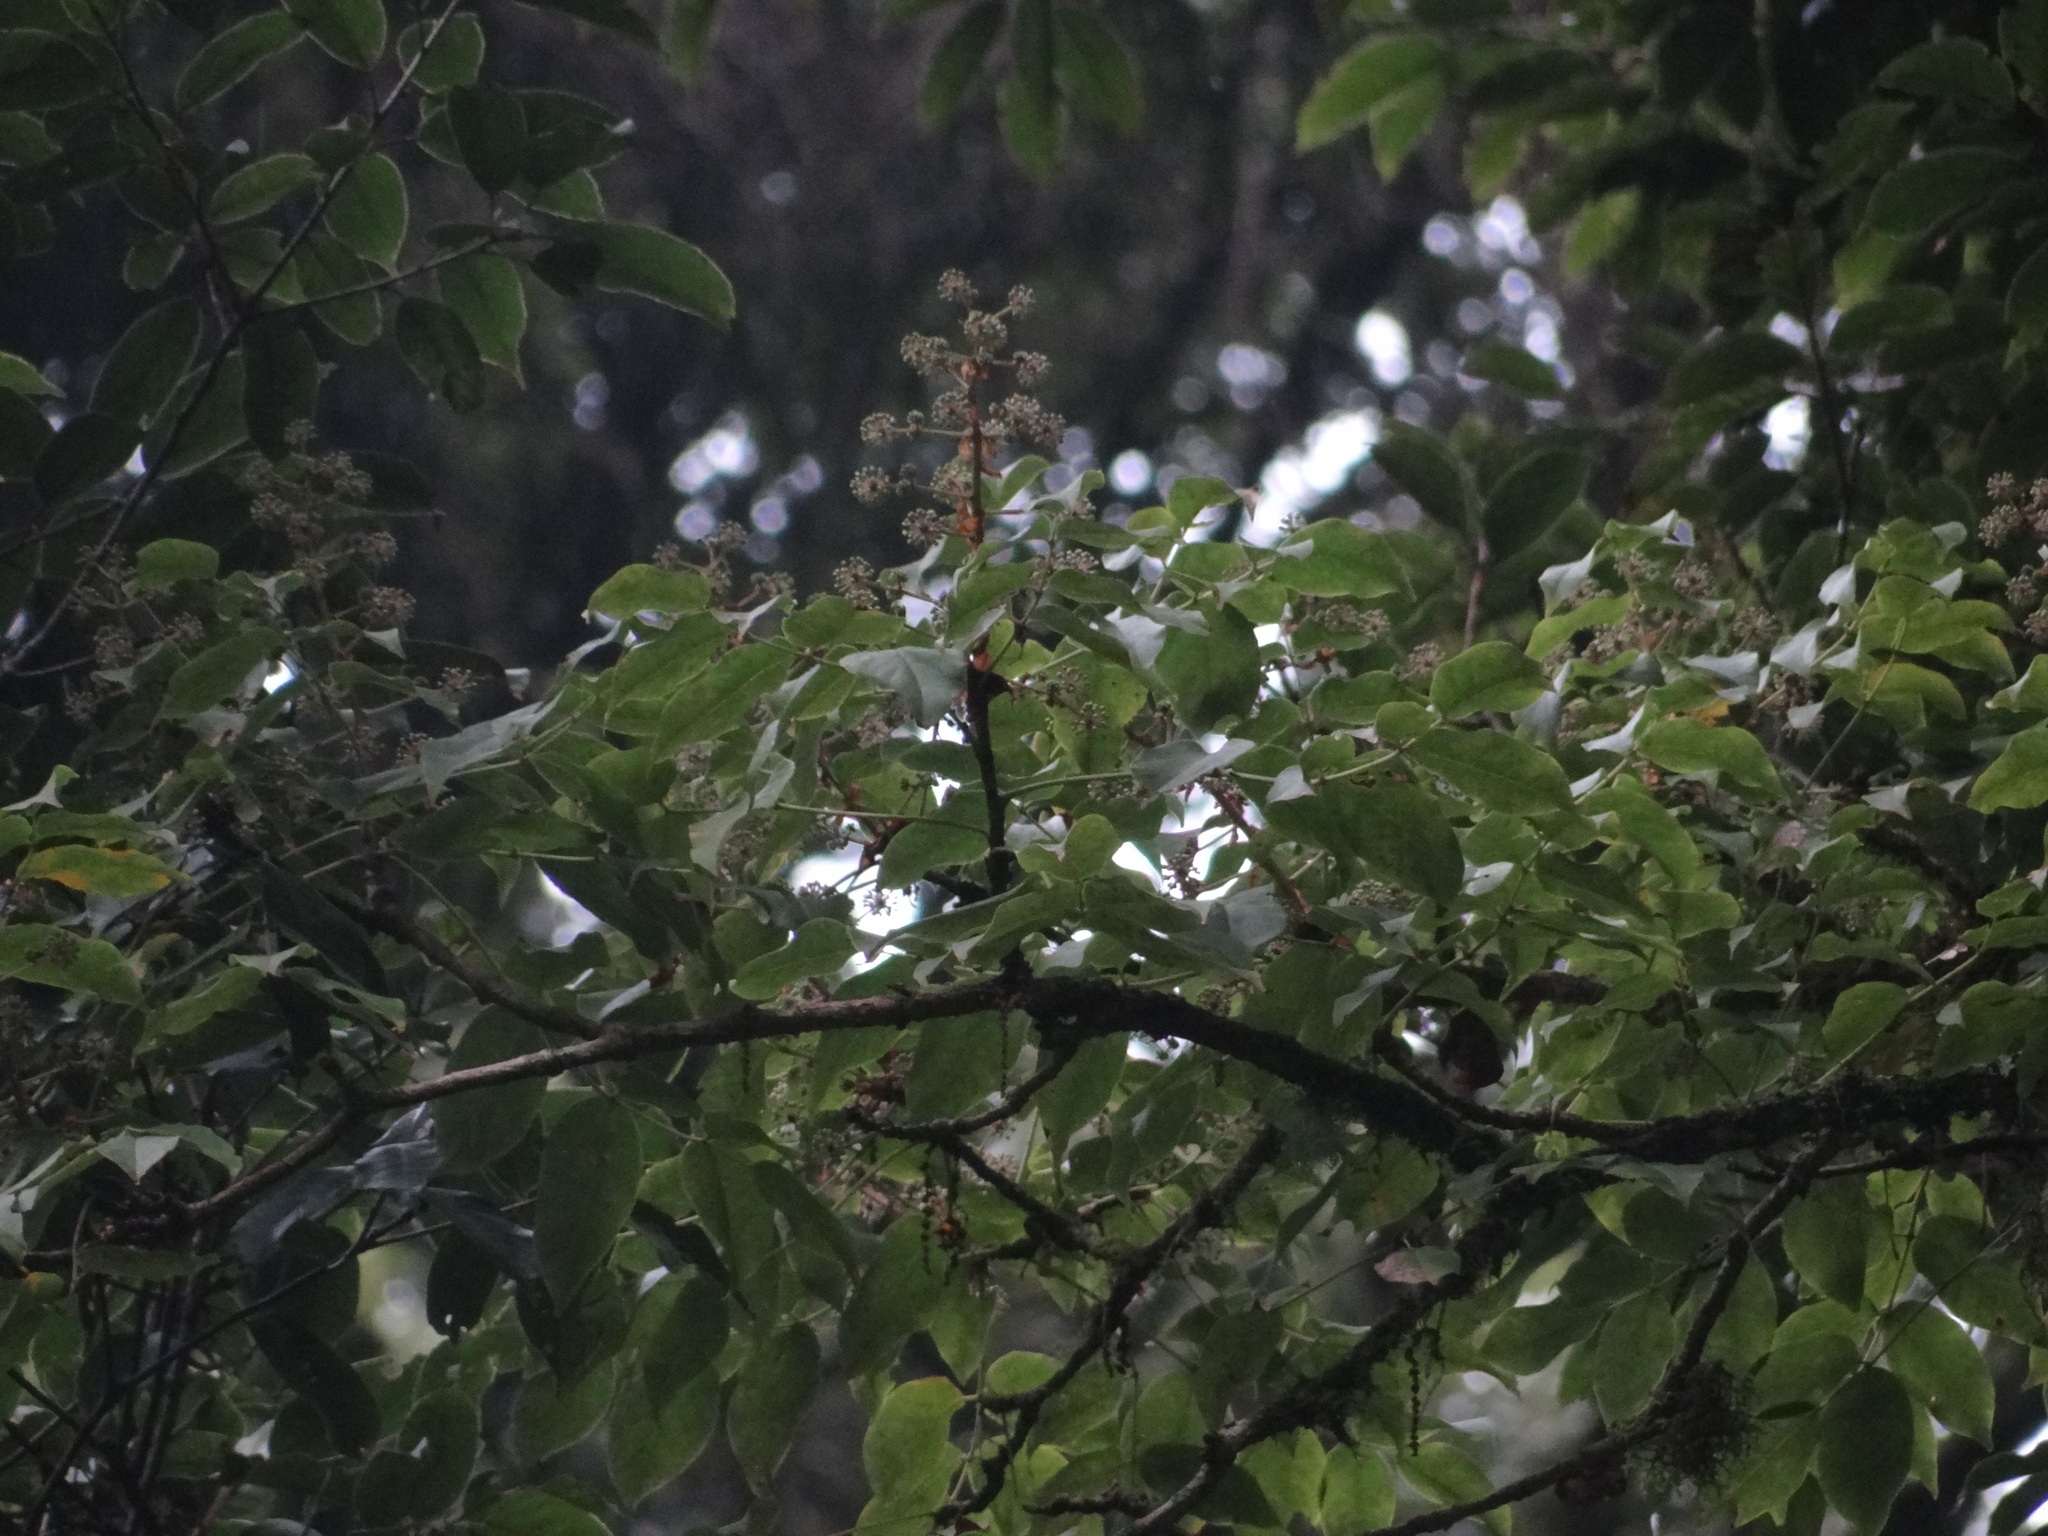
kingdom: Plantae
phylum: Tracheophyta
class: Magnoliopsida
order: Apiales
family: Araliaceae
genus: Aralia
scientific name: Aralia castanopsisicola
